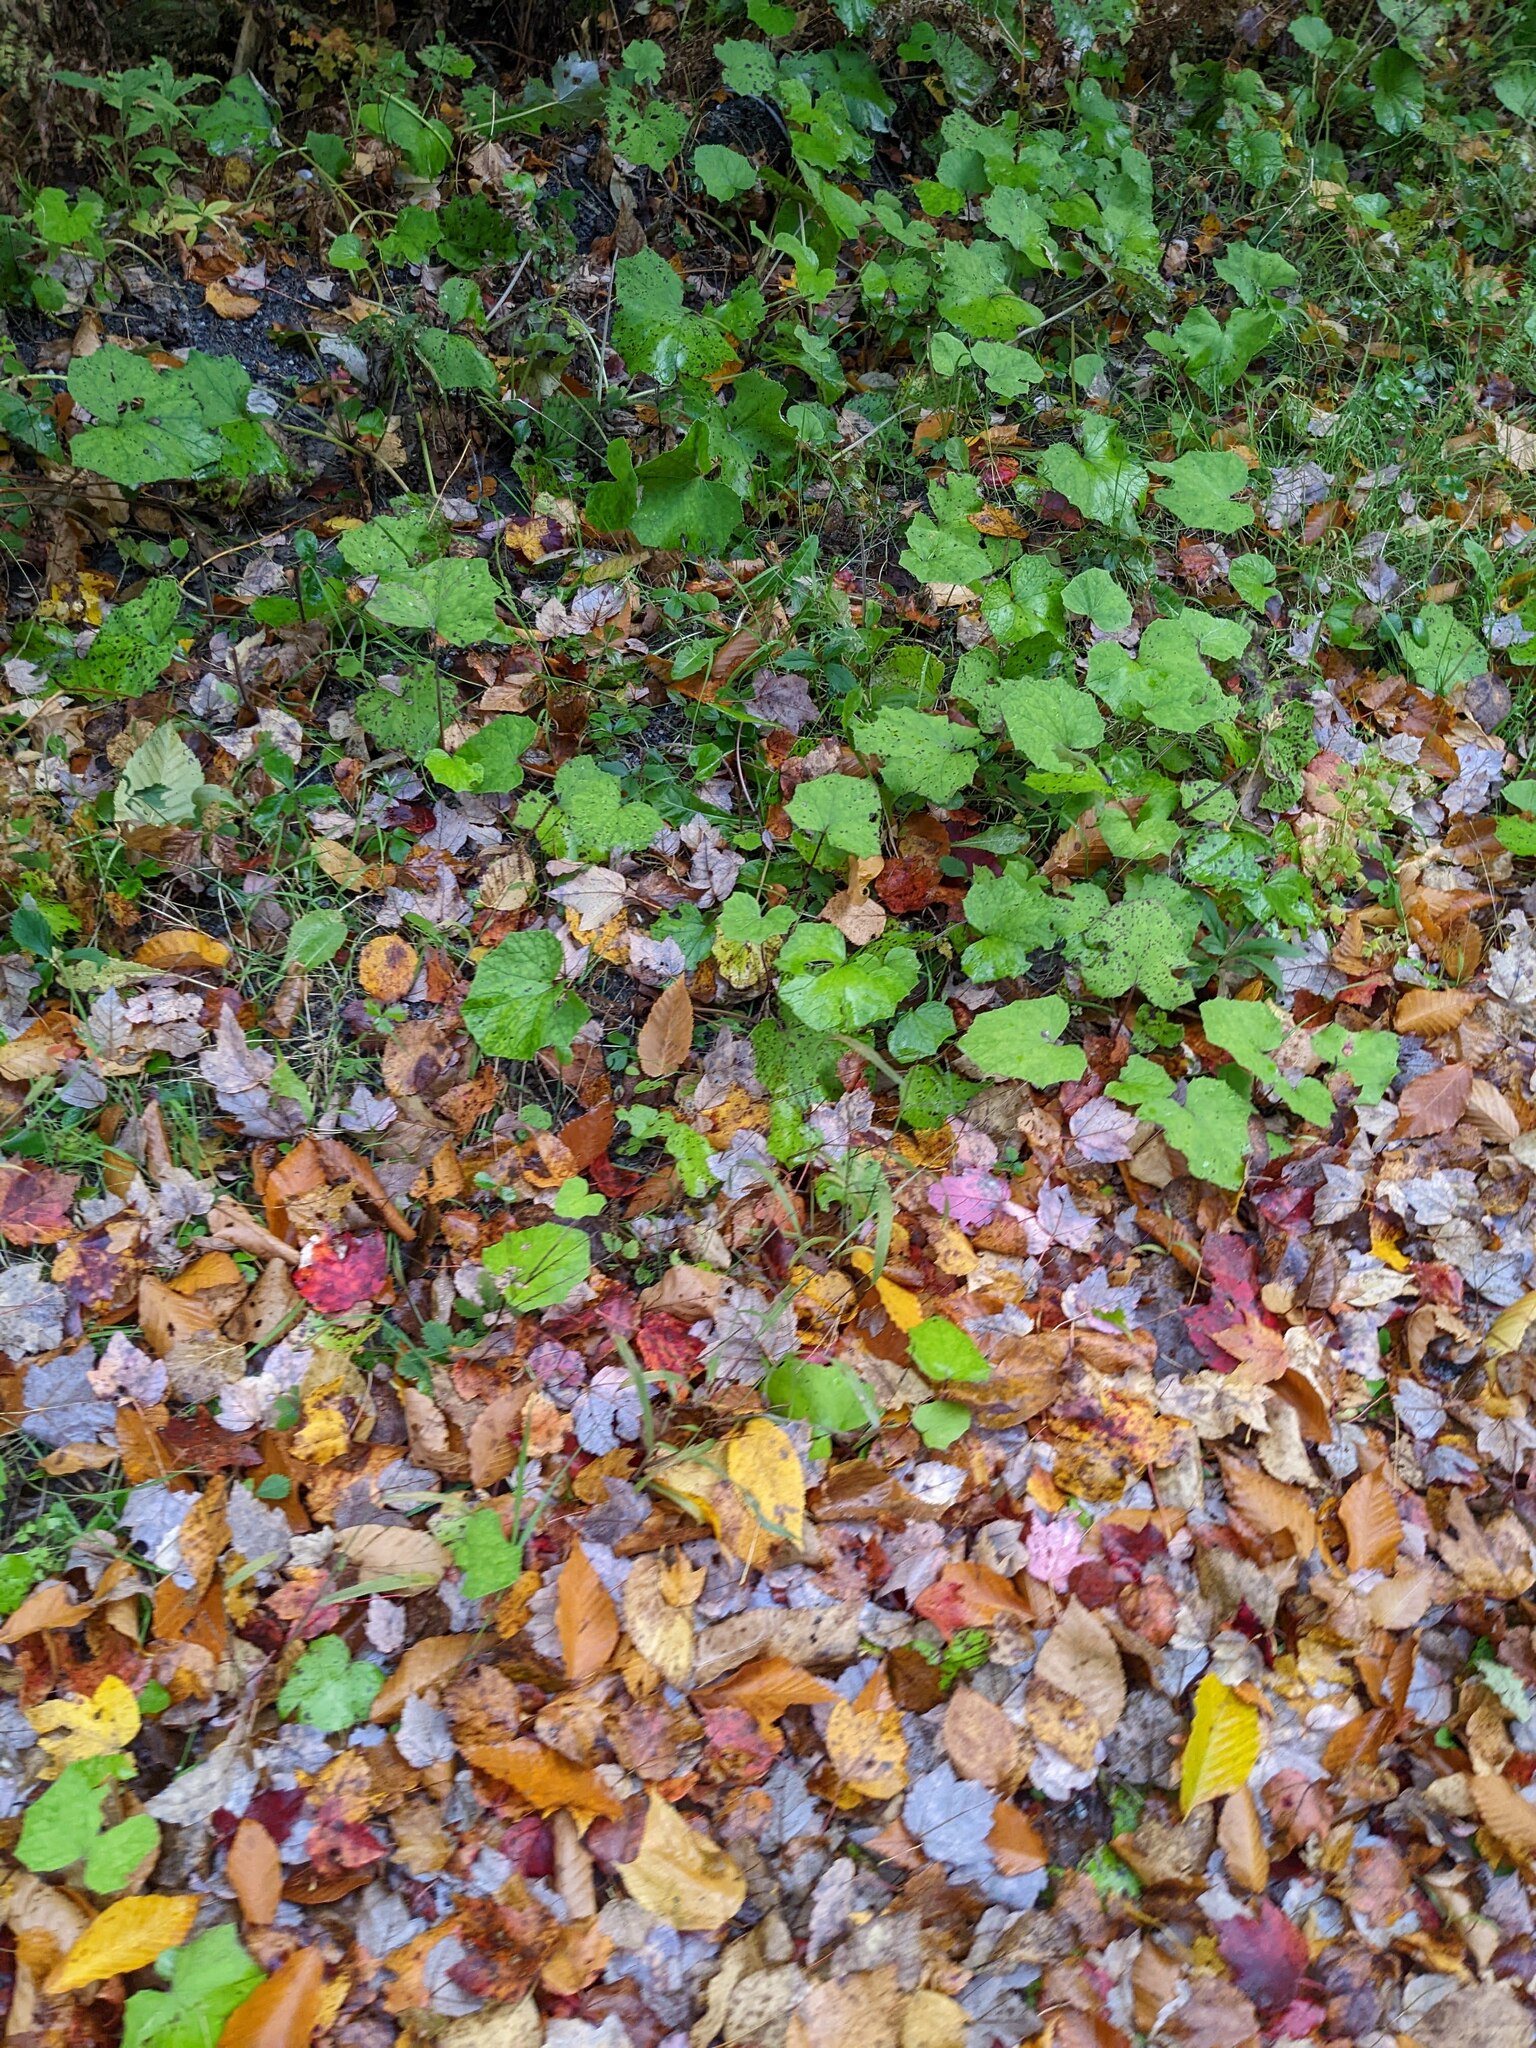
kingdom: Plantae
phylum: Tracheophyta
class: Magnoliopsida
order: Asterales
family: Asteraceae
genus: Tussilago
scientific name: Tussilago farfara
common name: Coltsfoot
